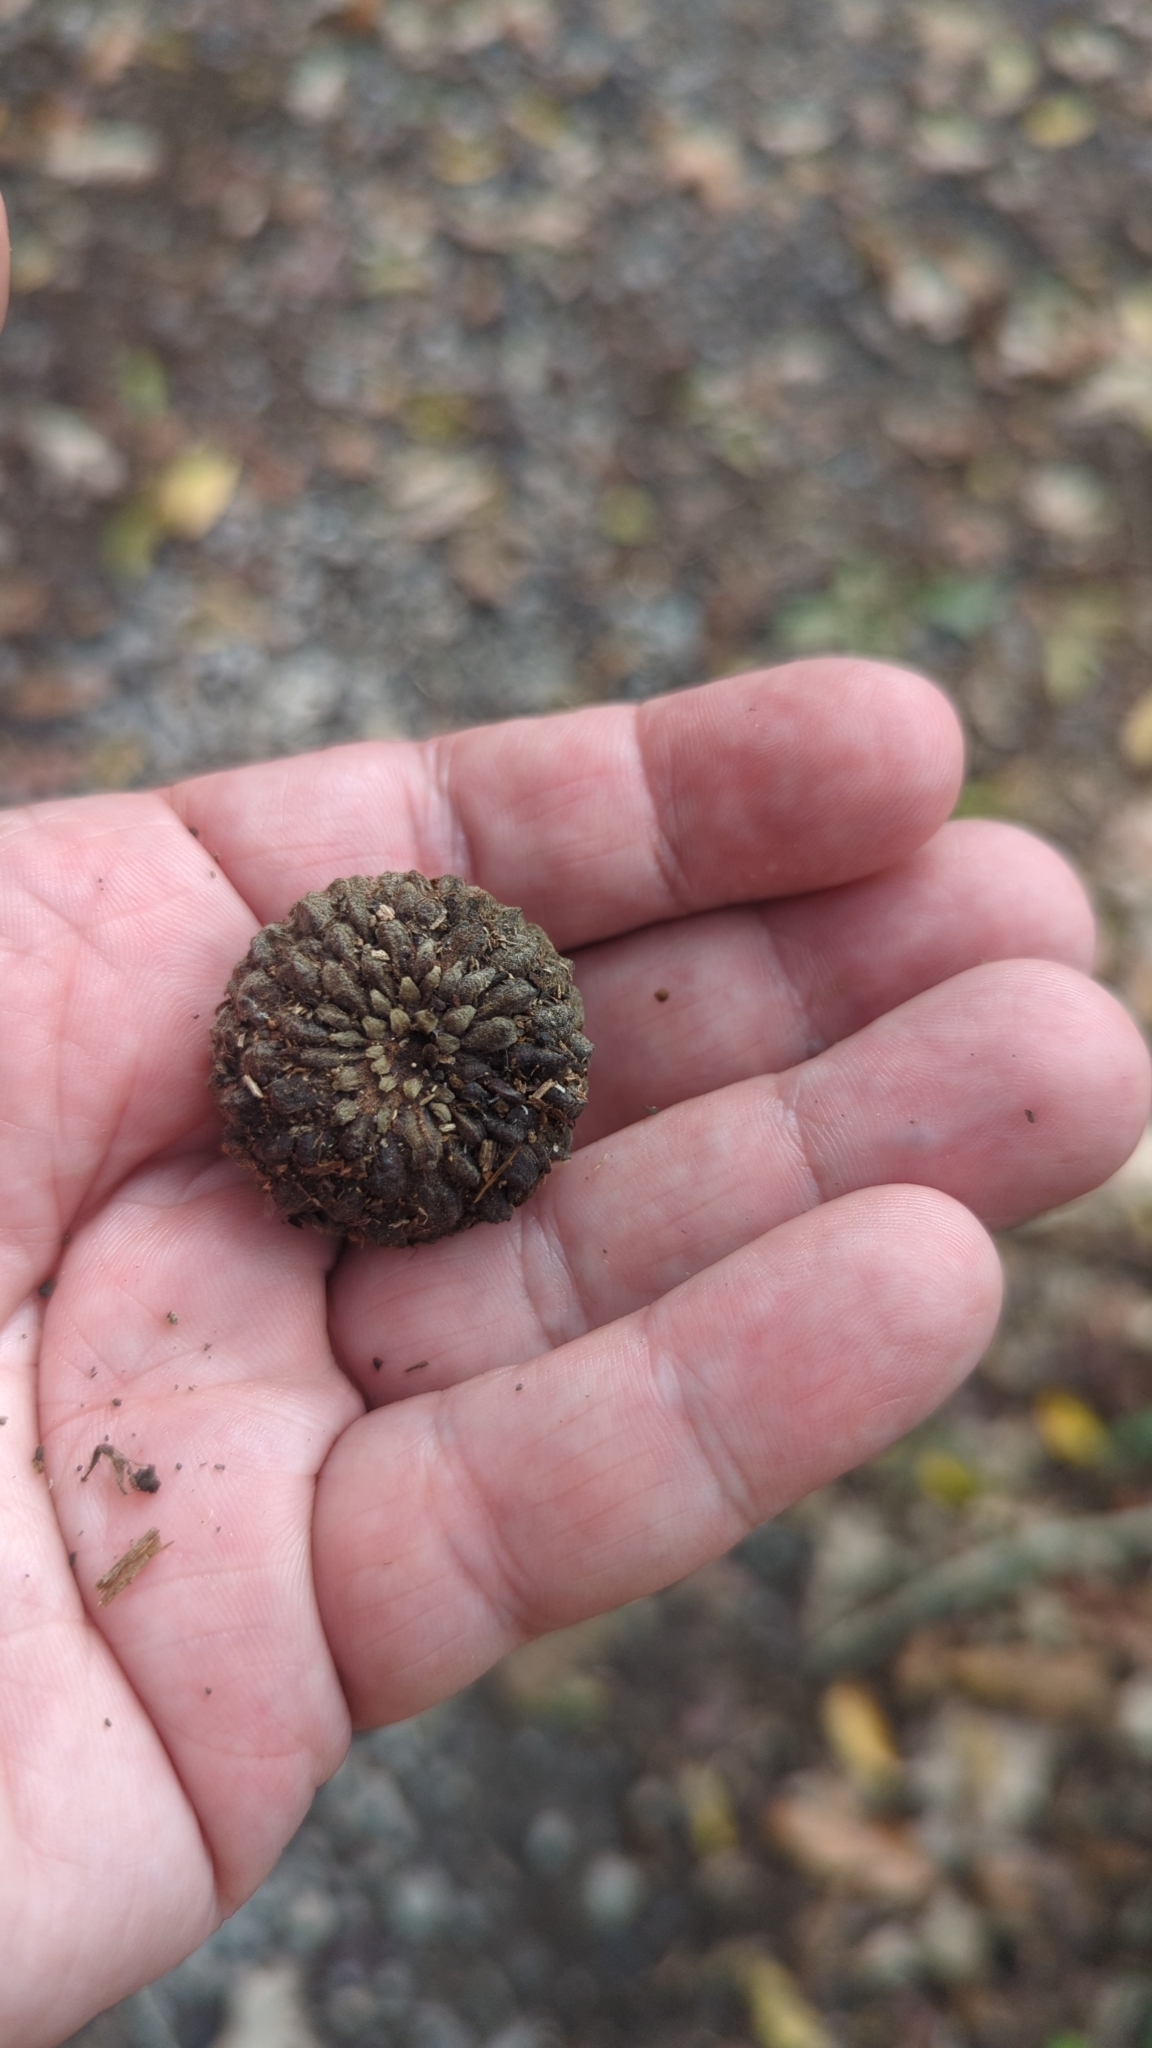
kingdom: Plantae
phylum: Tracheophyta
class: Magnoliopsida
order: Fagales
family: Fagaceae
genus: Quercus
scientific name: Quercus lyrata
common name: Overcup oak
